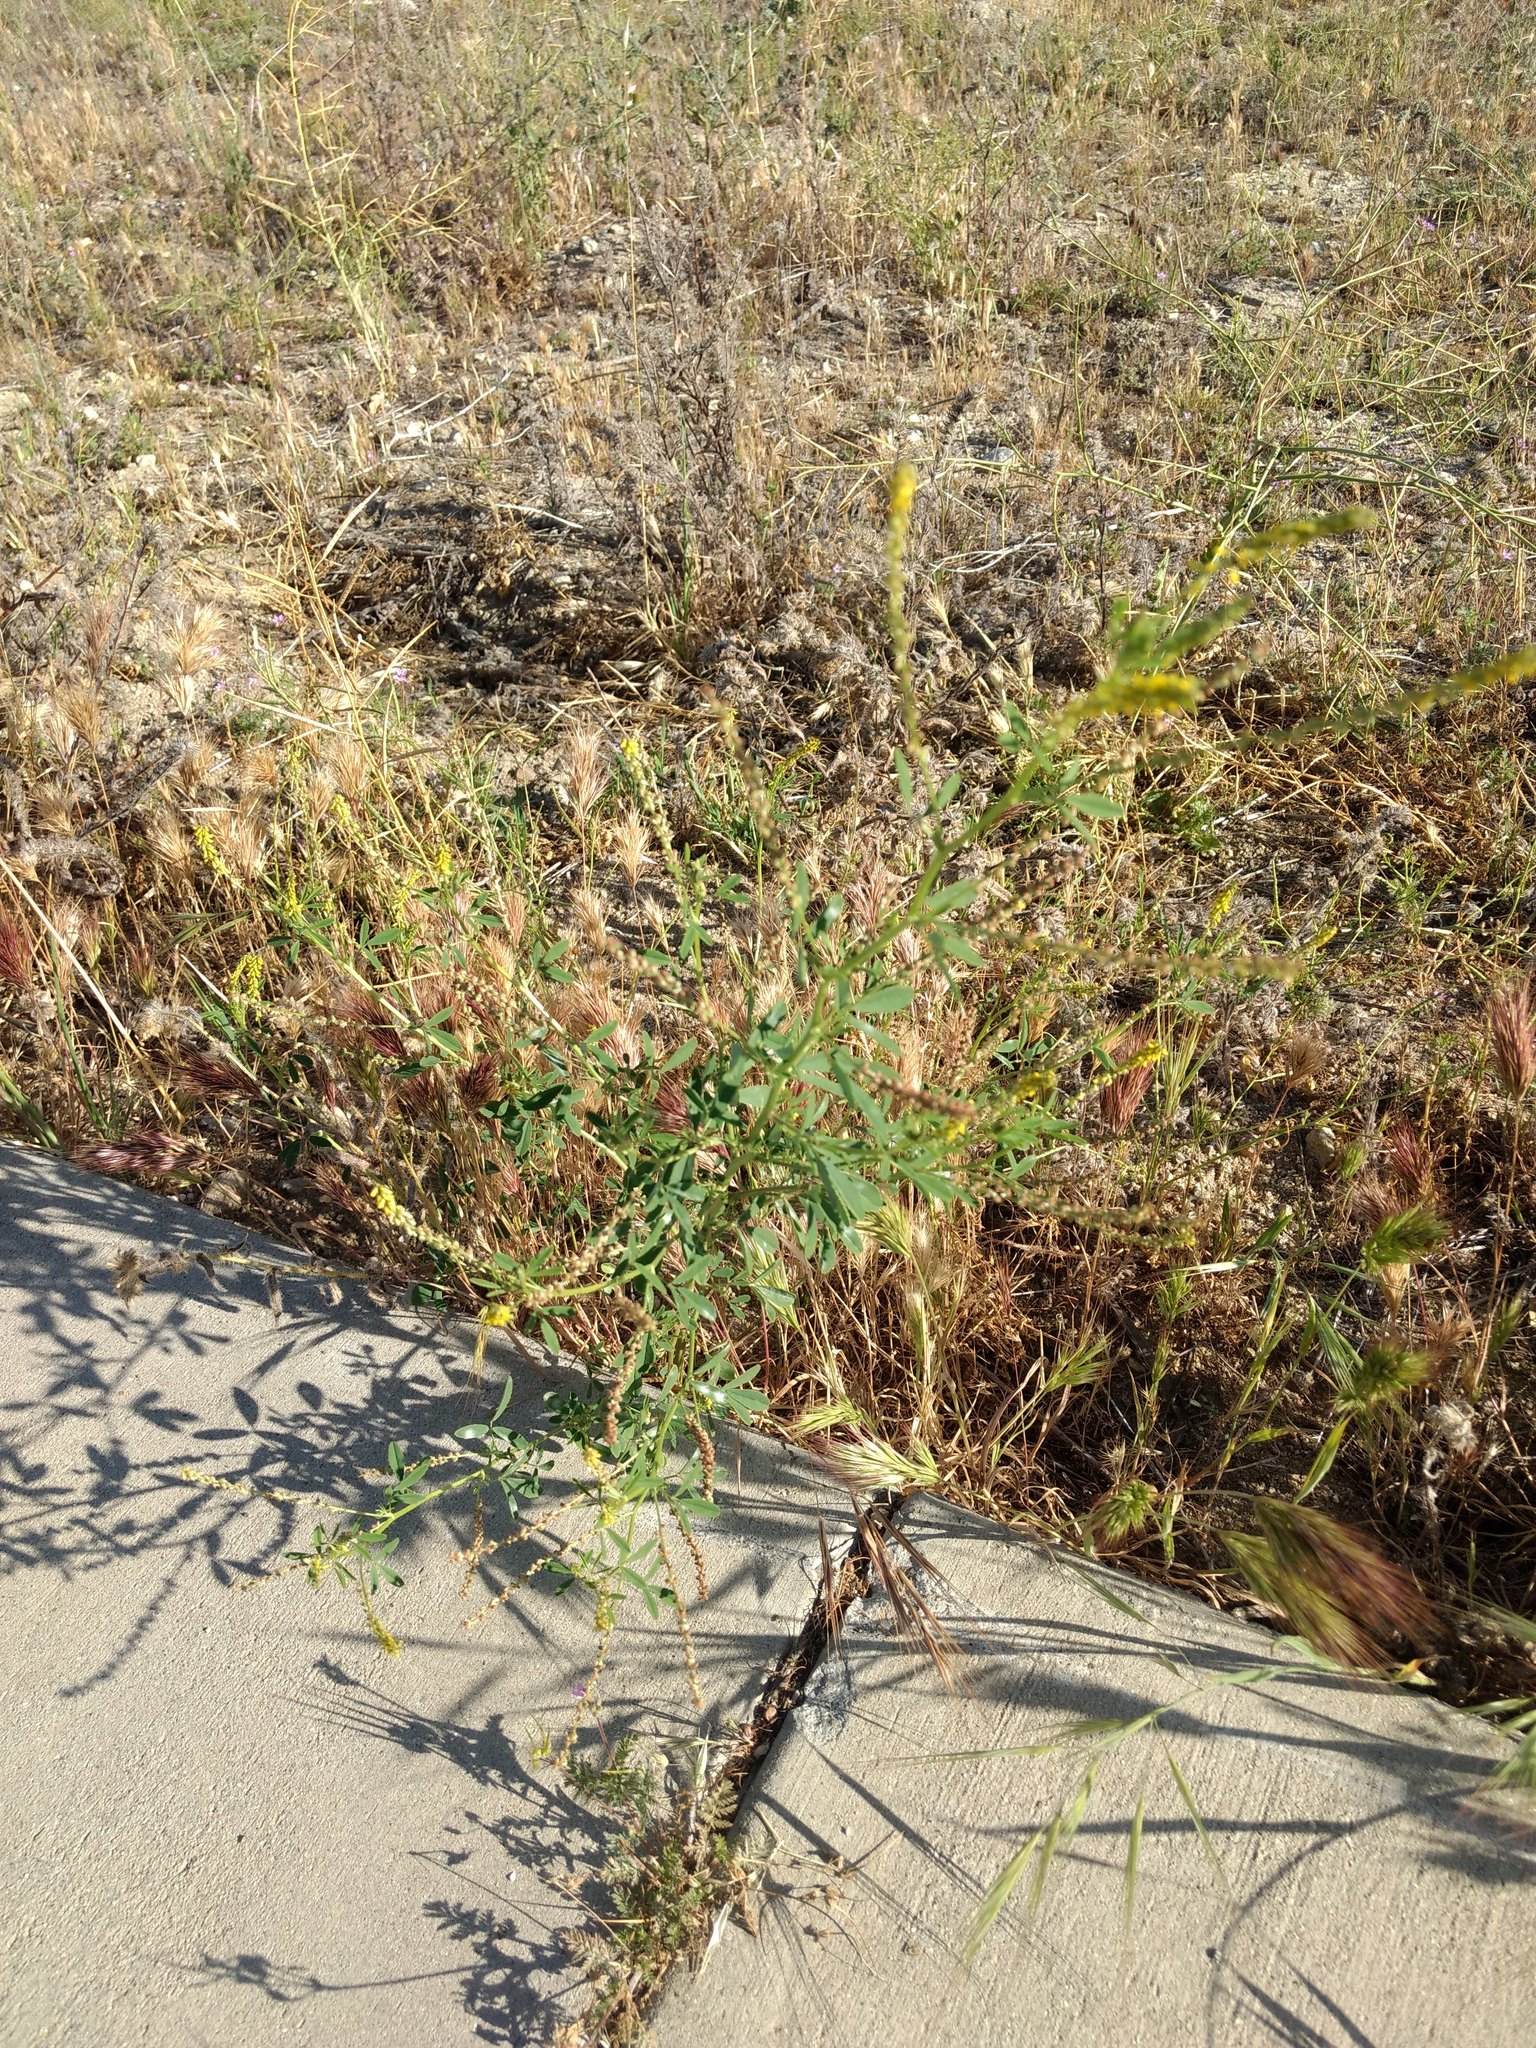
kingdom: Plantae
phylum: Tracheophyta
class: Magnoliopsida
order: Fabales
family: Fabaceae
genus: Melilotus
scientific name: Melilotus indicus
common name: Small melilot
